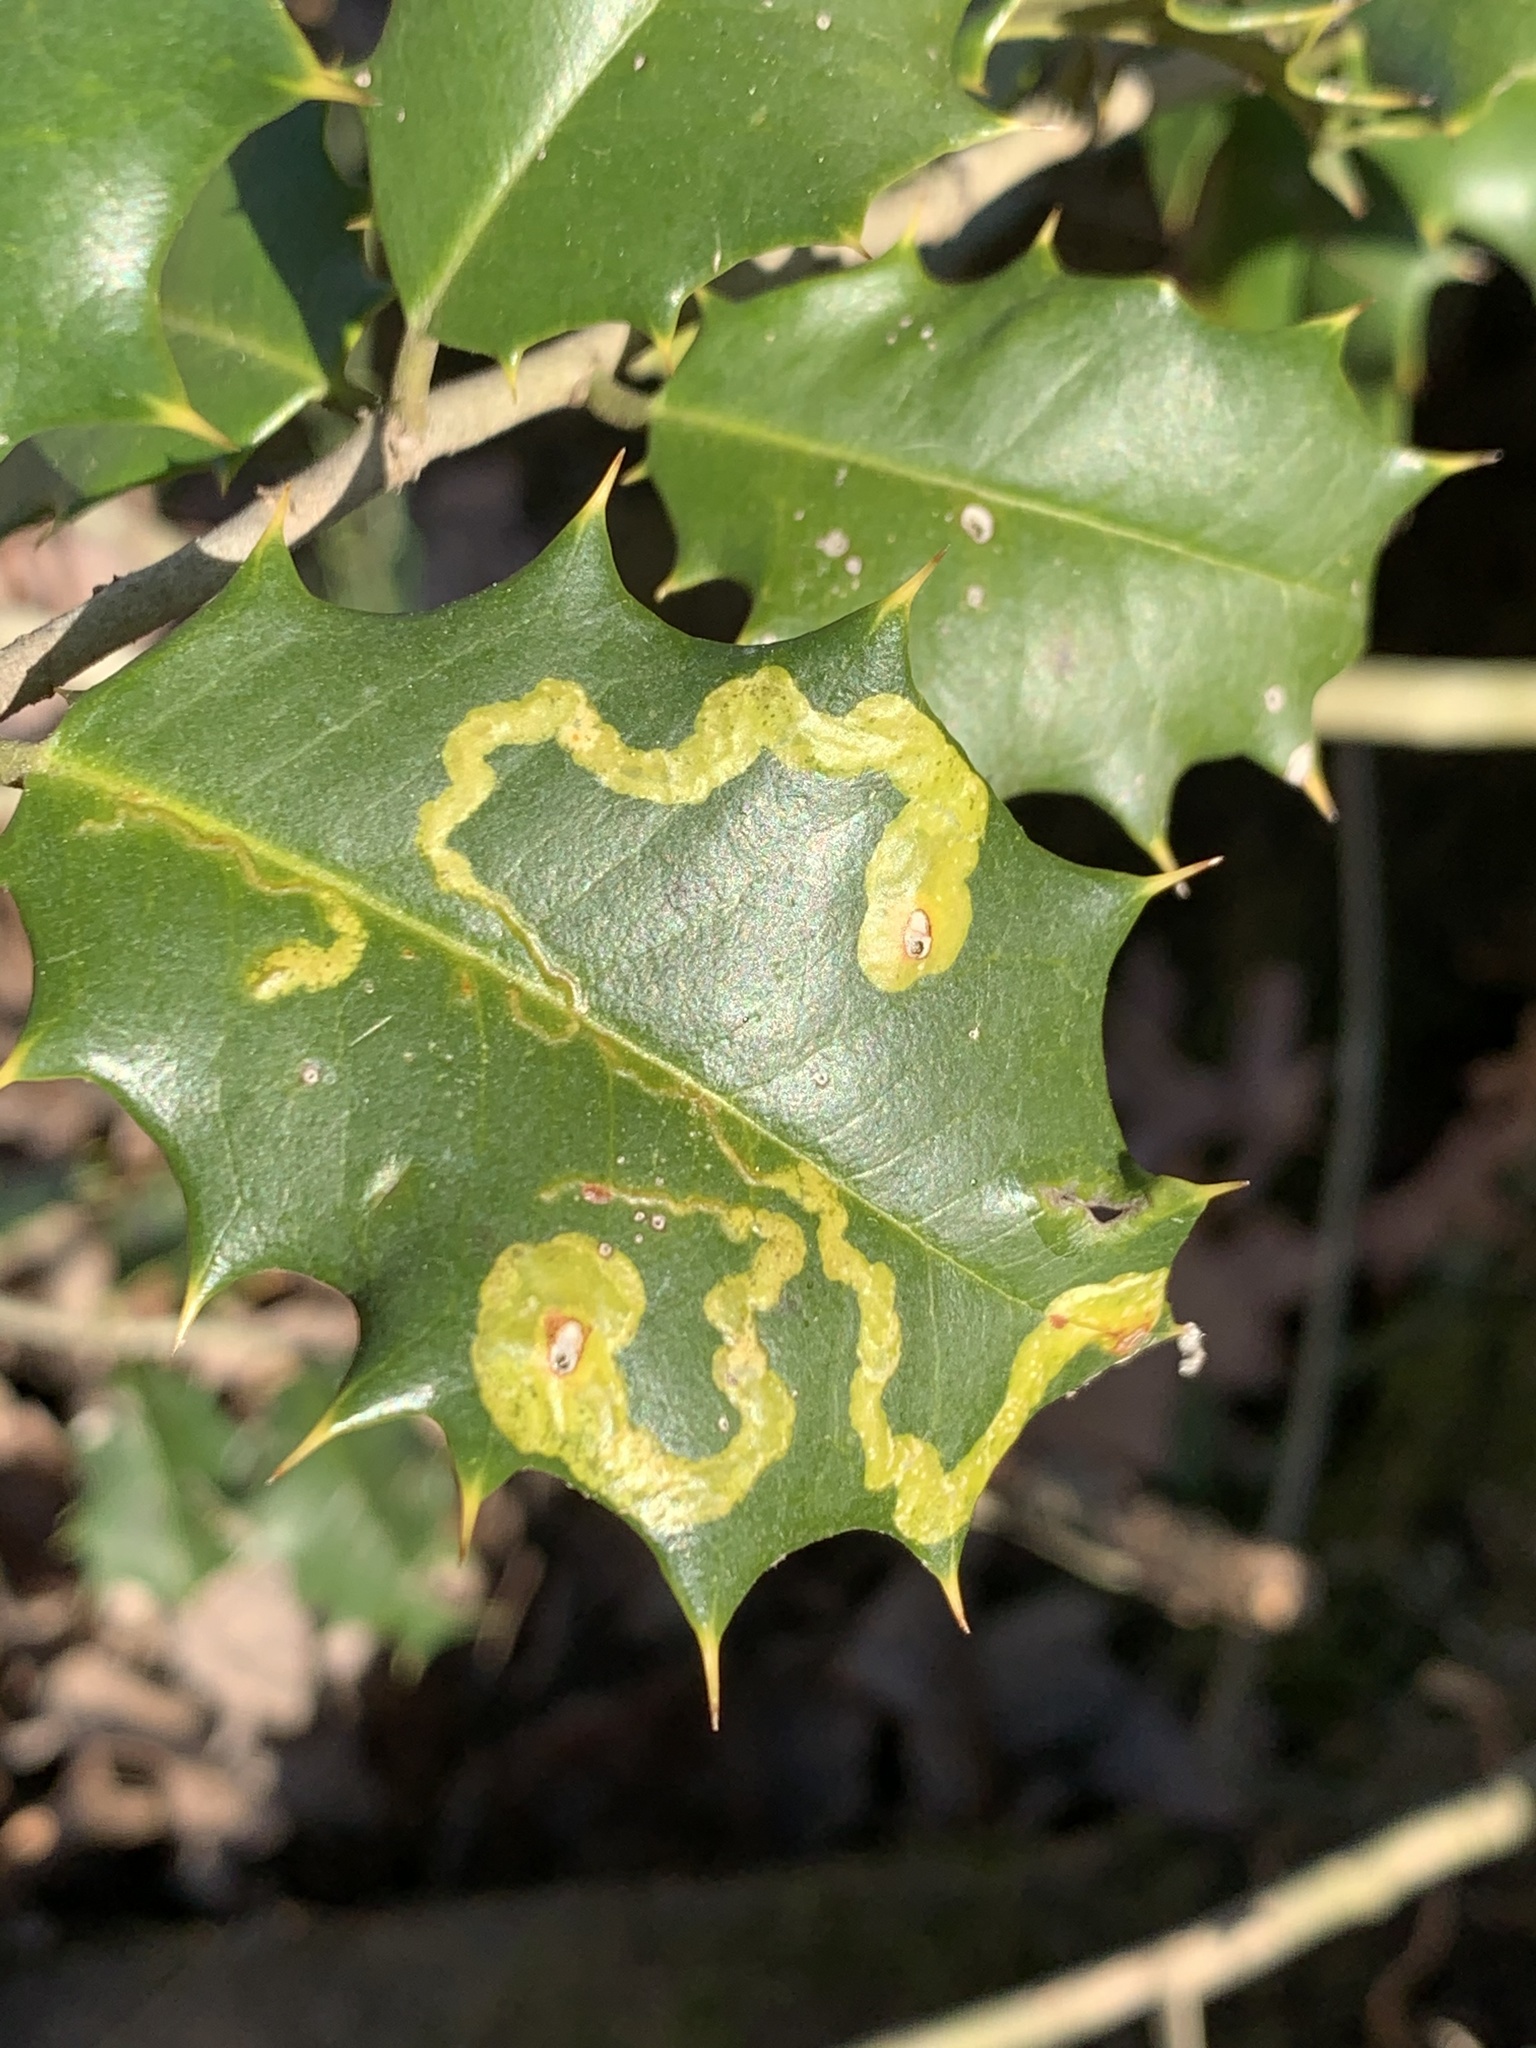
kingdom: Animalia
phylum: Arthropoda
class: Insecta
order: Diptera
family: Agromyzidae
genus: Phytomyza
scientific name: Phytomyza ilicicola
